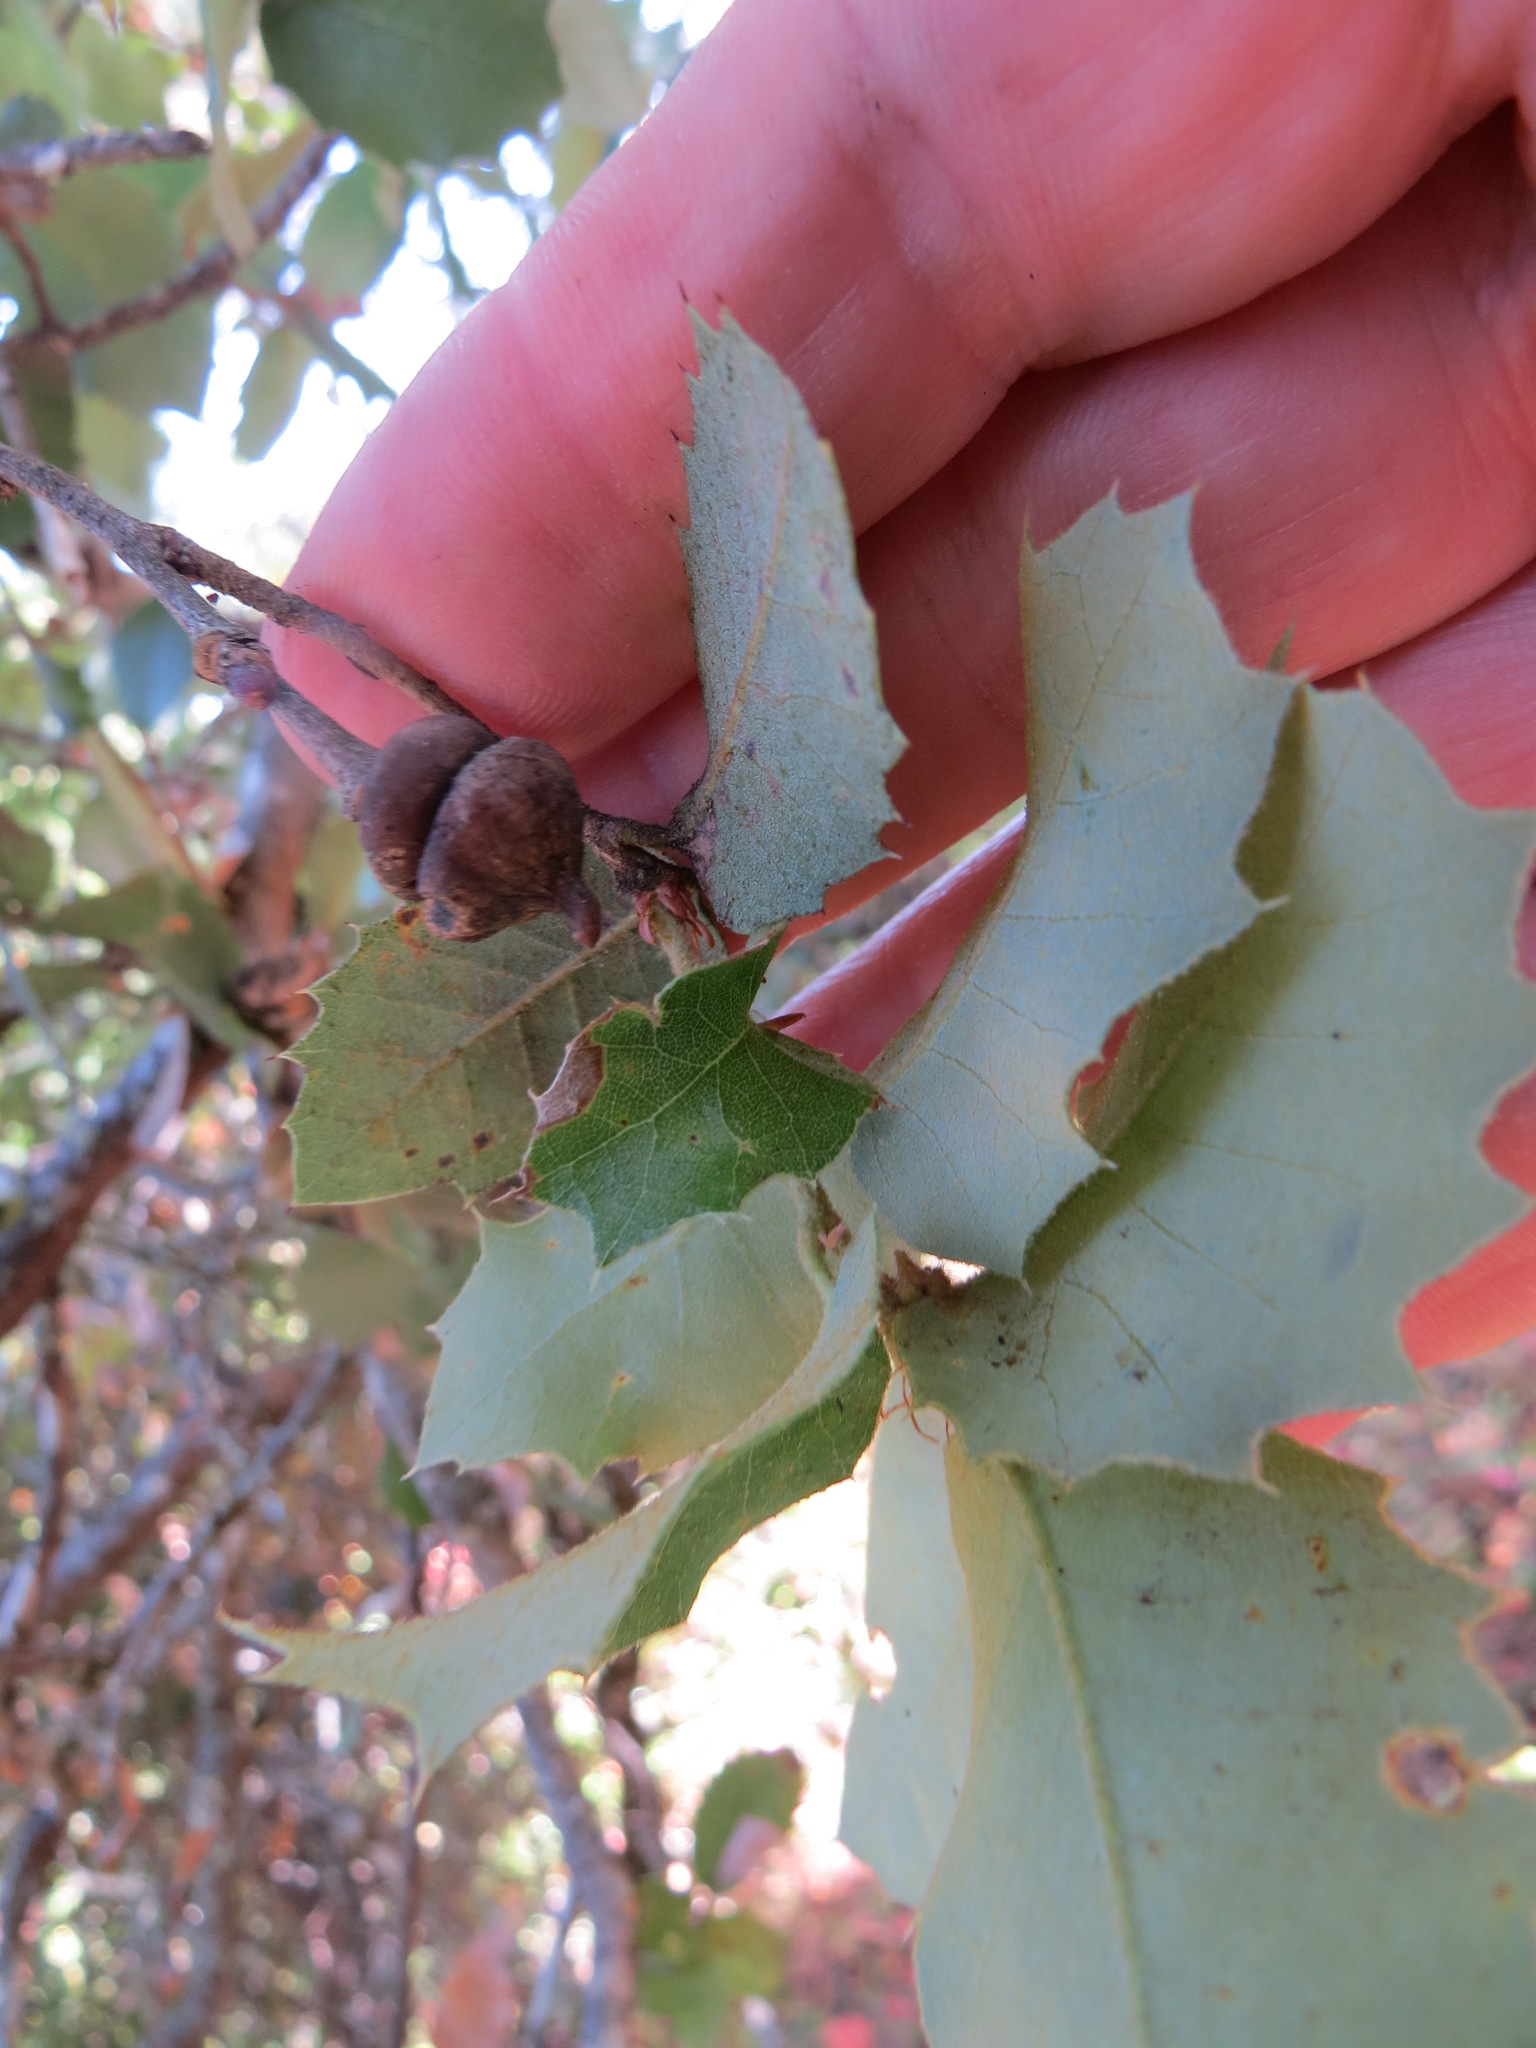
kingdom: Animalia
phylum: Arthropoda
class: Insecta
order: Hymenoptera
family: Cynipidae
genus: Heteroecus
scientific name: Heteroecus
